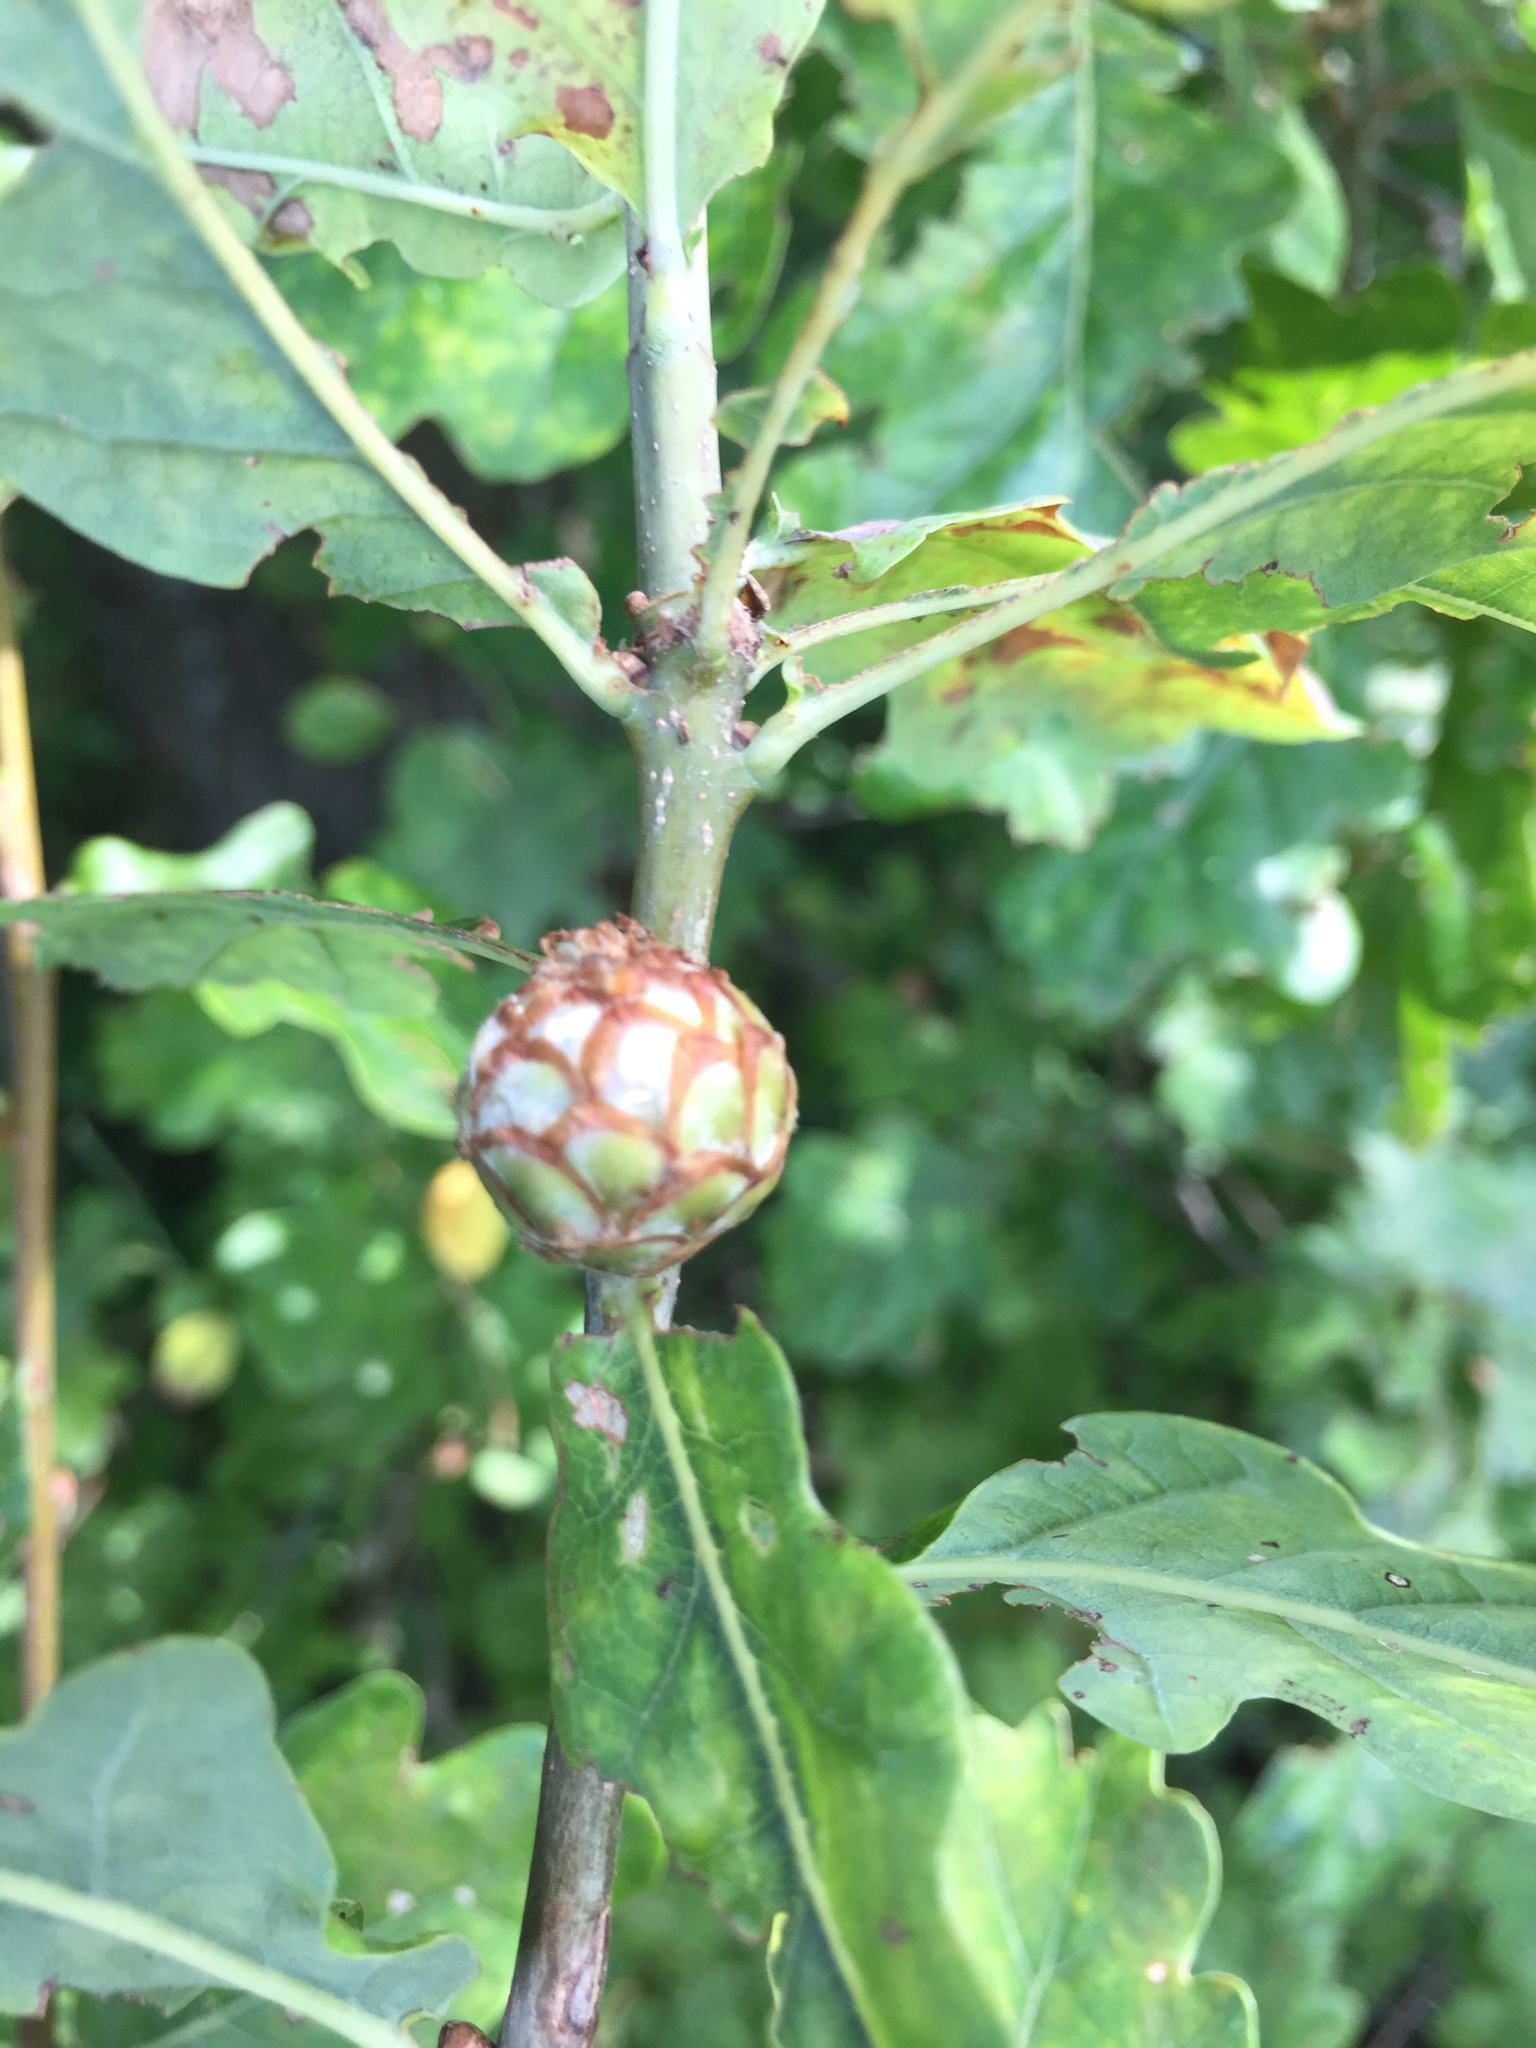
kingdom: Animalia
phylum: Arthropoda
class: Insecta
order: Hymenoptera
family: Cynipidae
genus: Andricus
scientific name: Andricus foecundatrix
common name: Artichoke gall
